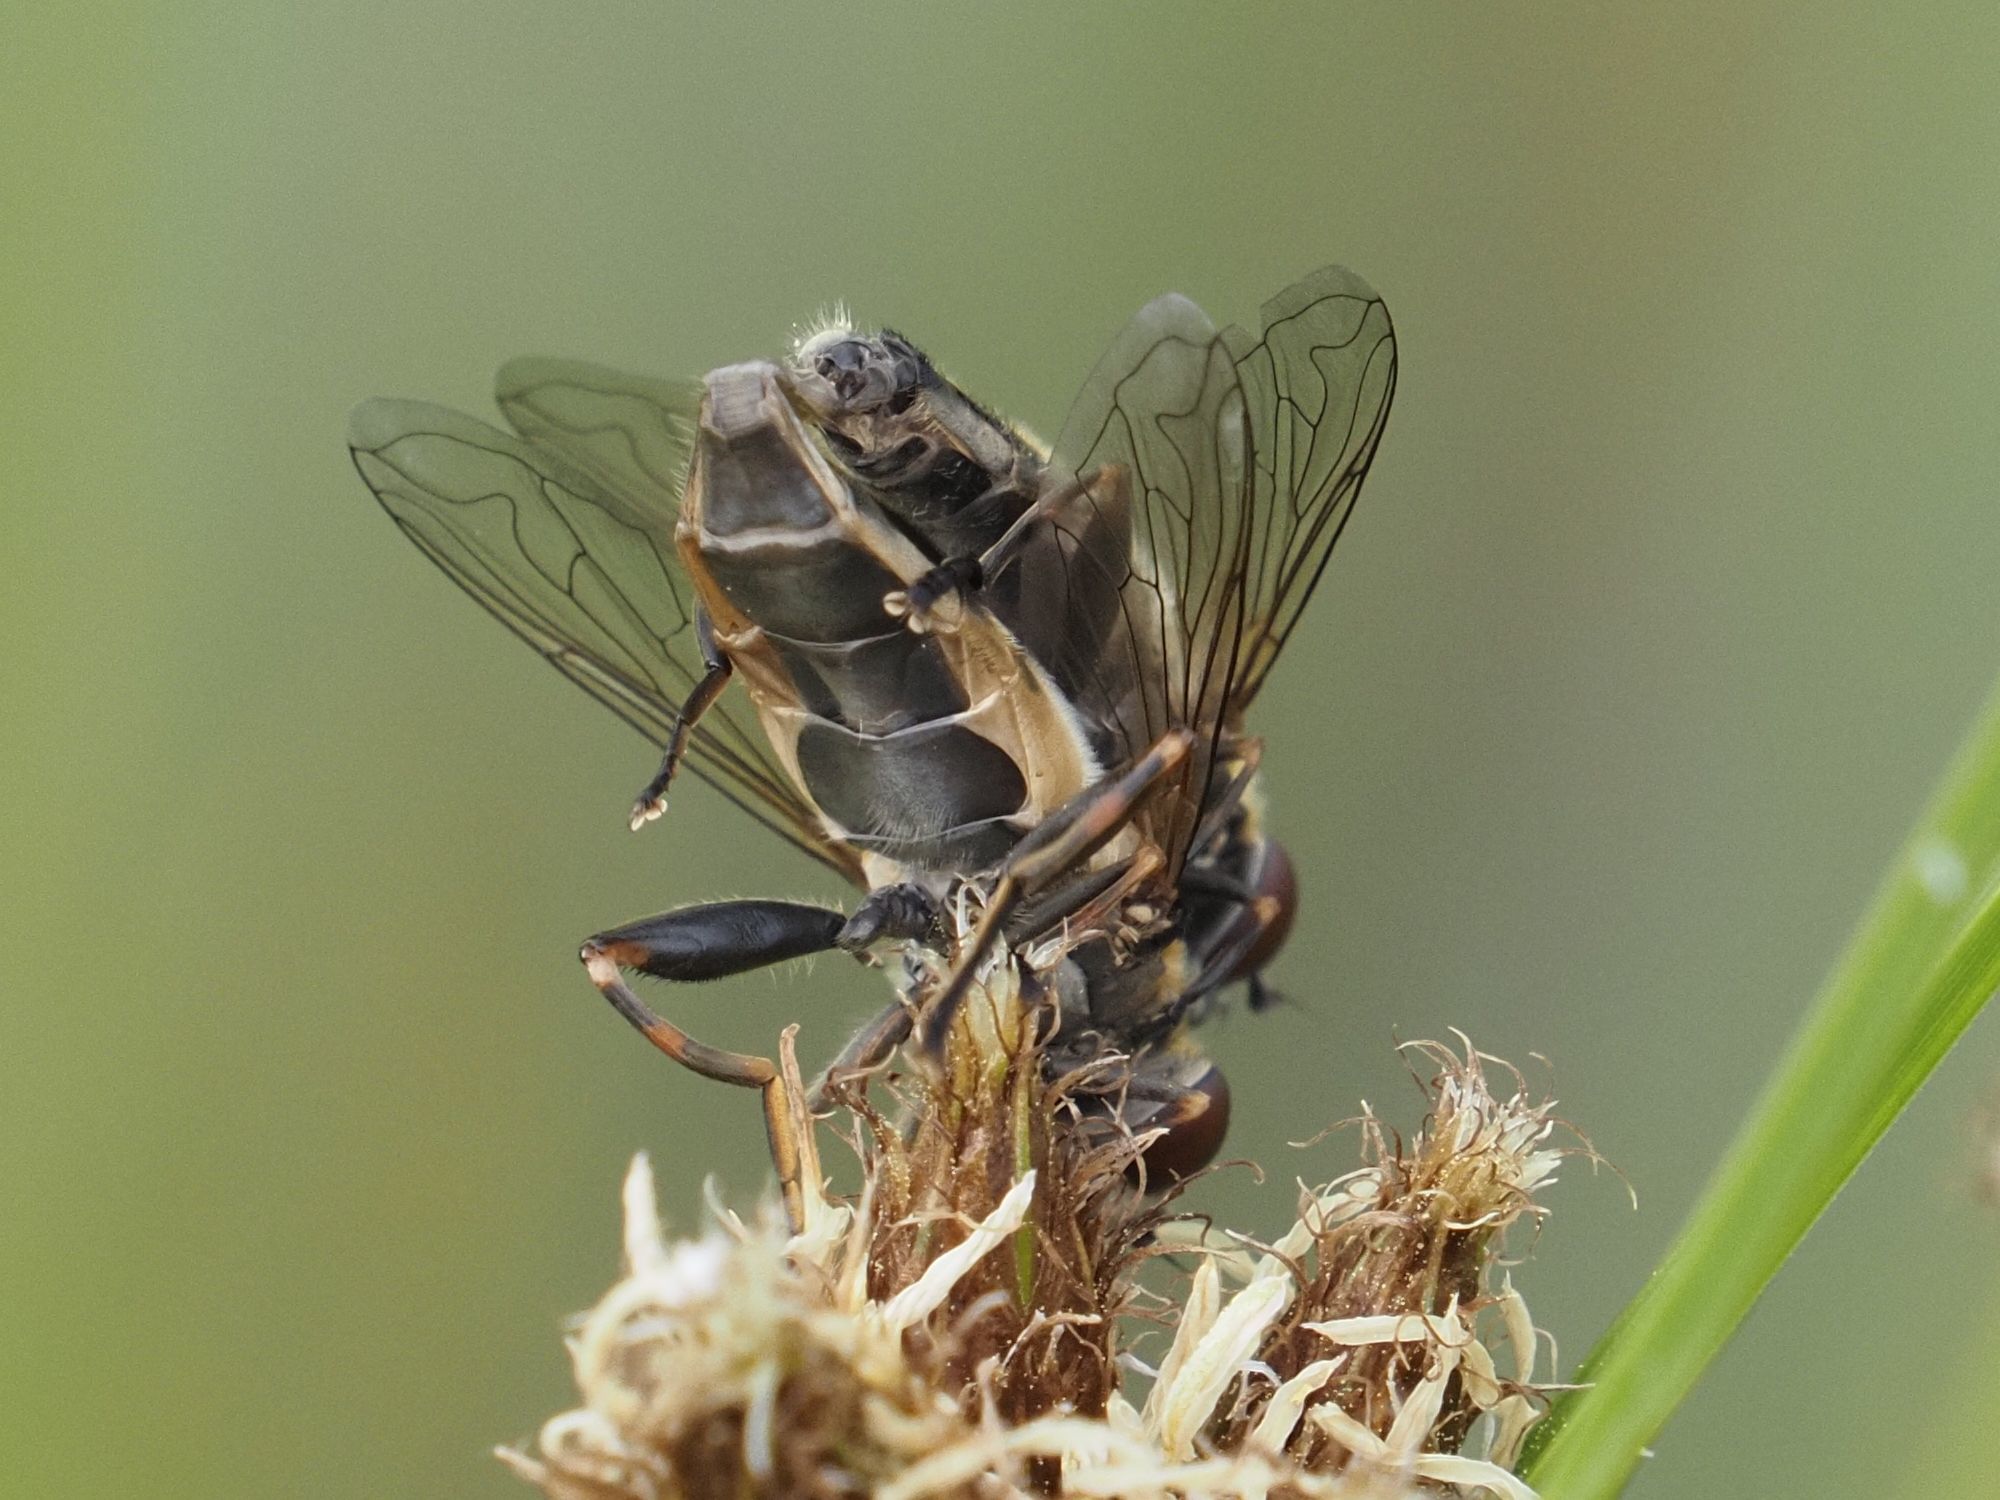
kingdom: Animalia
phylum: Arthropoda
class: Insecta
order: Diptera
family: Syrphidae
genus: Lejops
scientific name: Lejops vittatus
